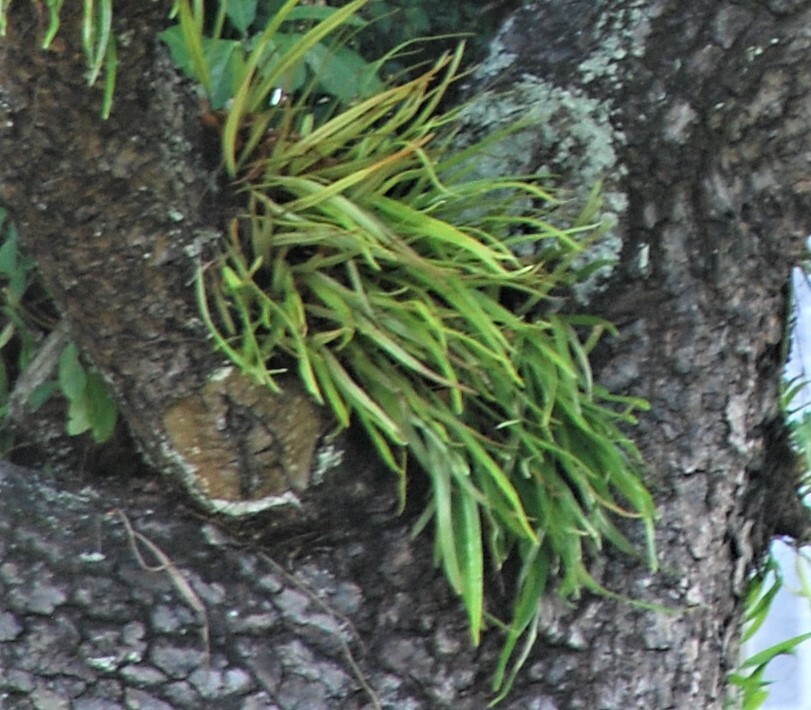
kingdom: Plantae
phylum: Tracheophyta
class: Polypodiopsida
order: Polypodiales
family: Polypodiaceae
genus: Pyrrosia
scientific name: Pyrrosia longifolia
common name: Long-leaved felt fern
